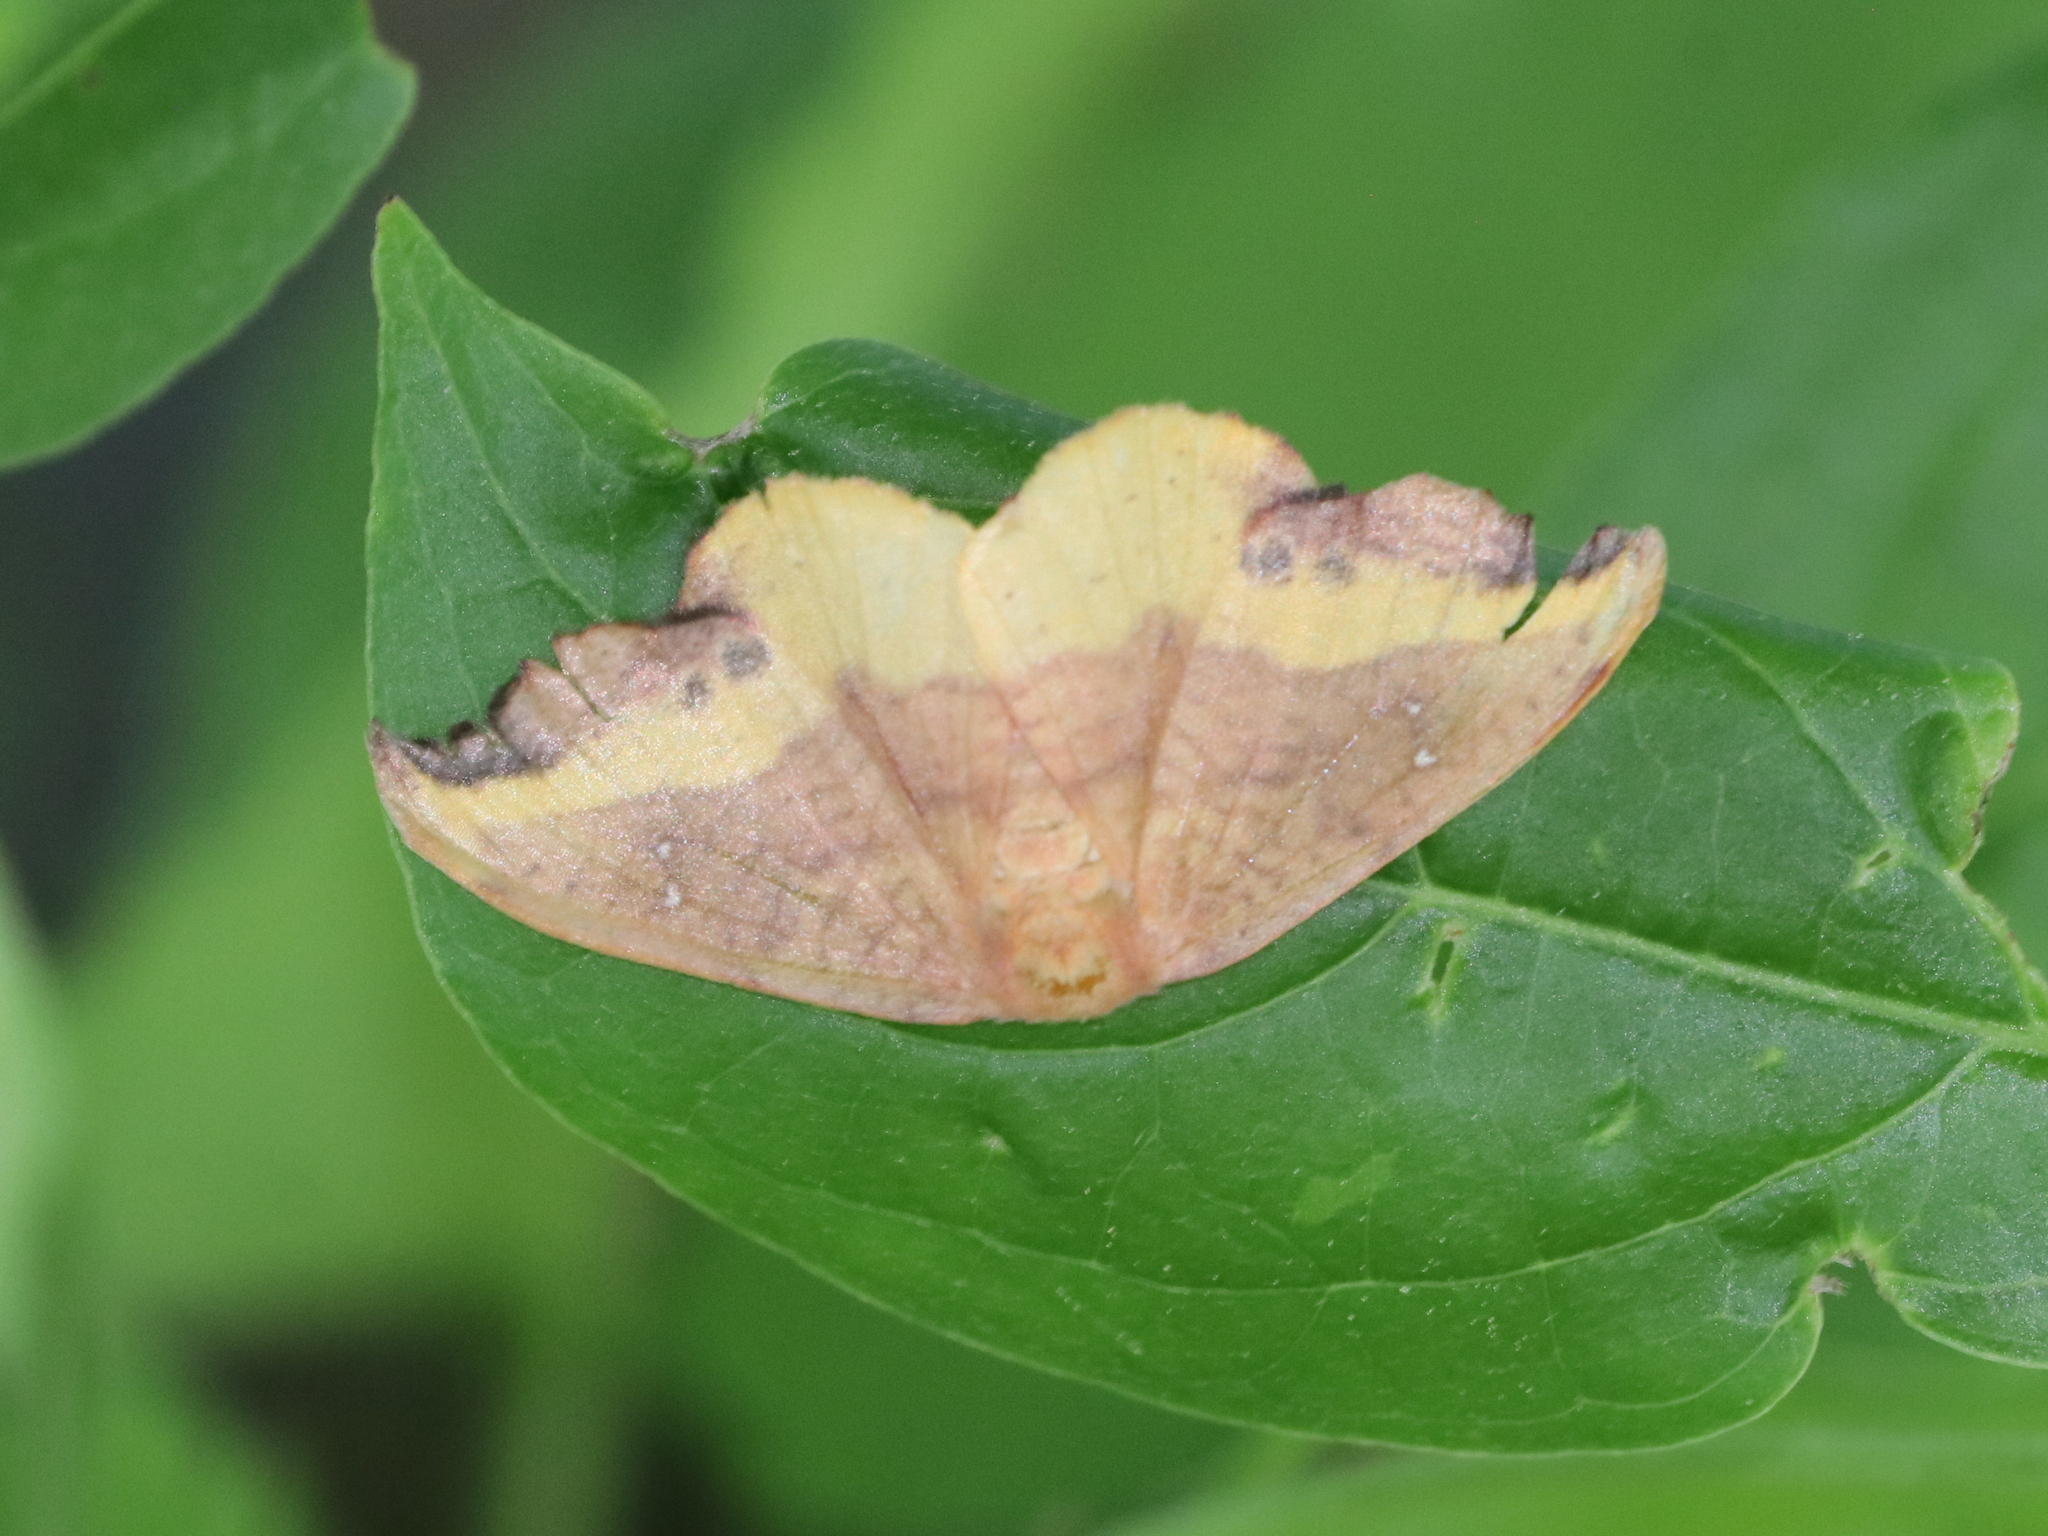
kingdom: Animalia
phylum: Arthropoda
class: Insecta
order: Lepidoptera
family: Drepanidae
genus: Oreta
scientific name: Oreta rosea
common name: Rose hooktip
